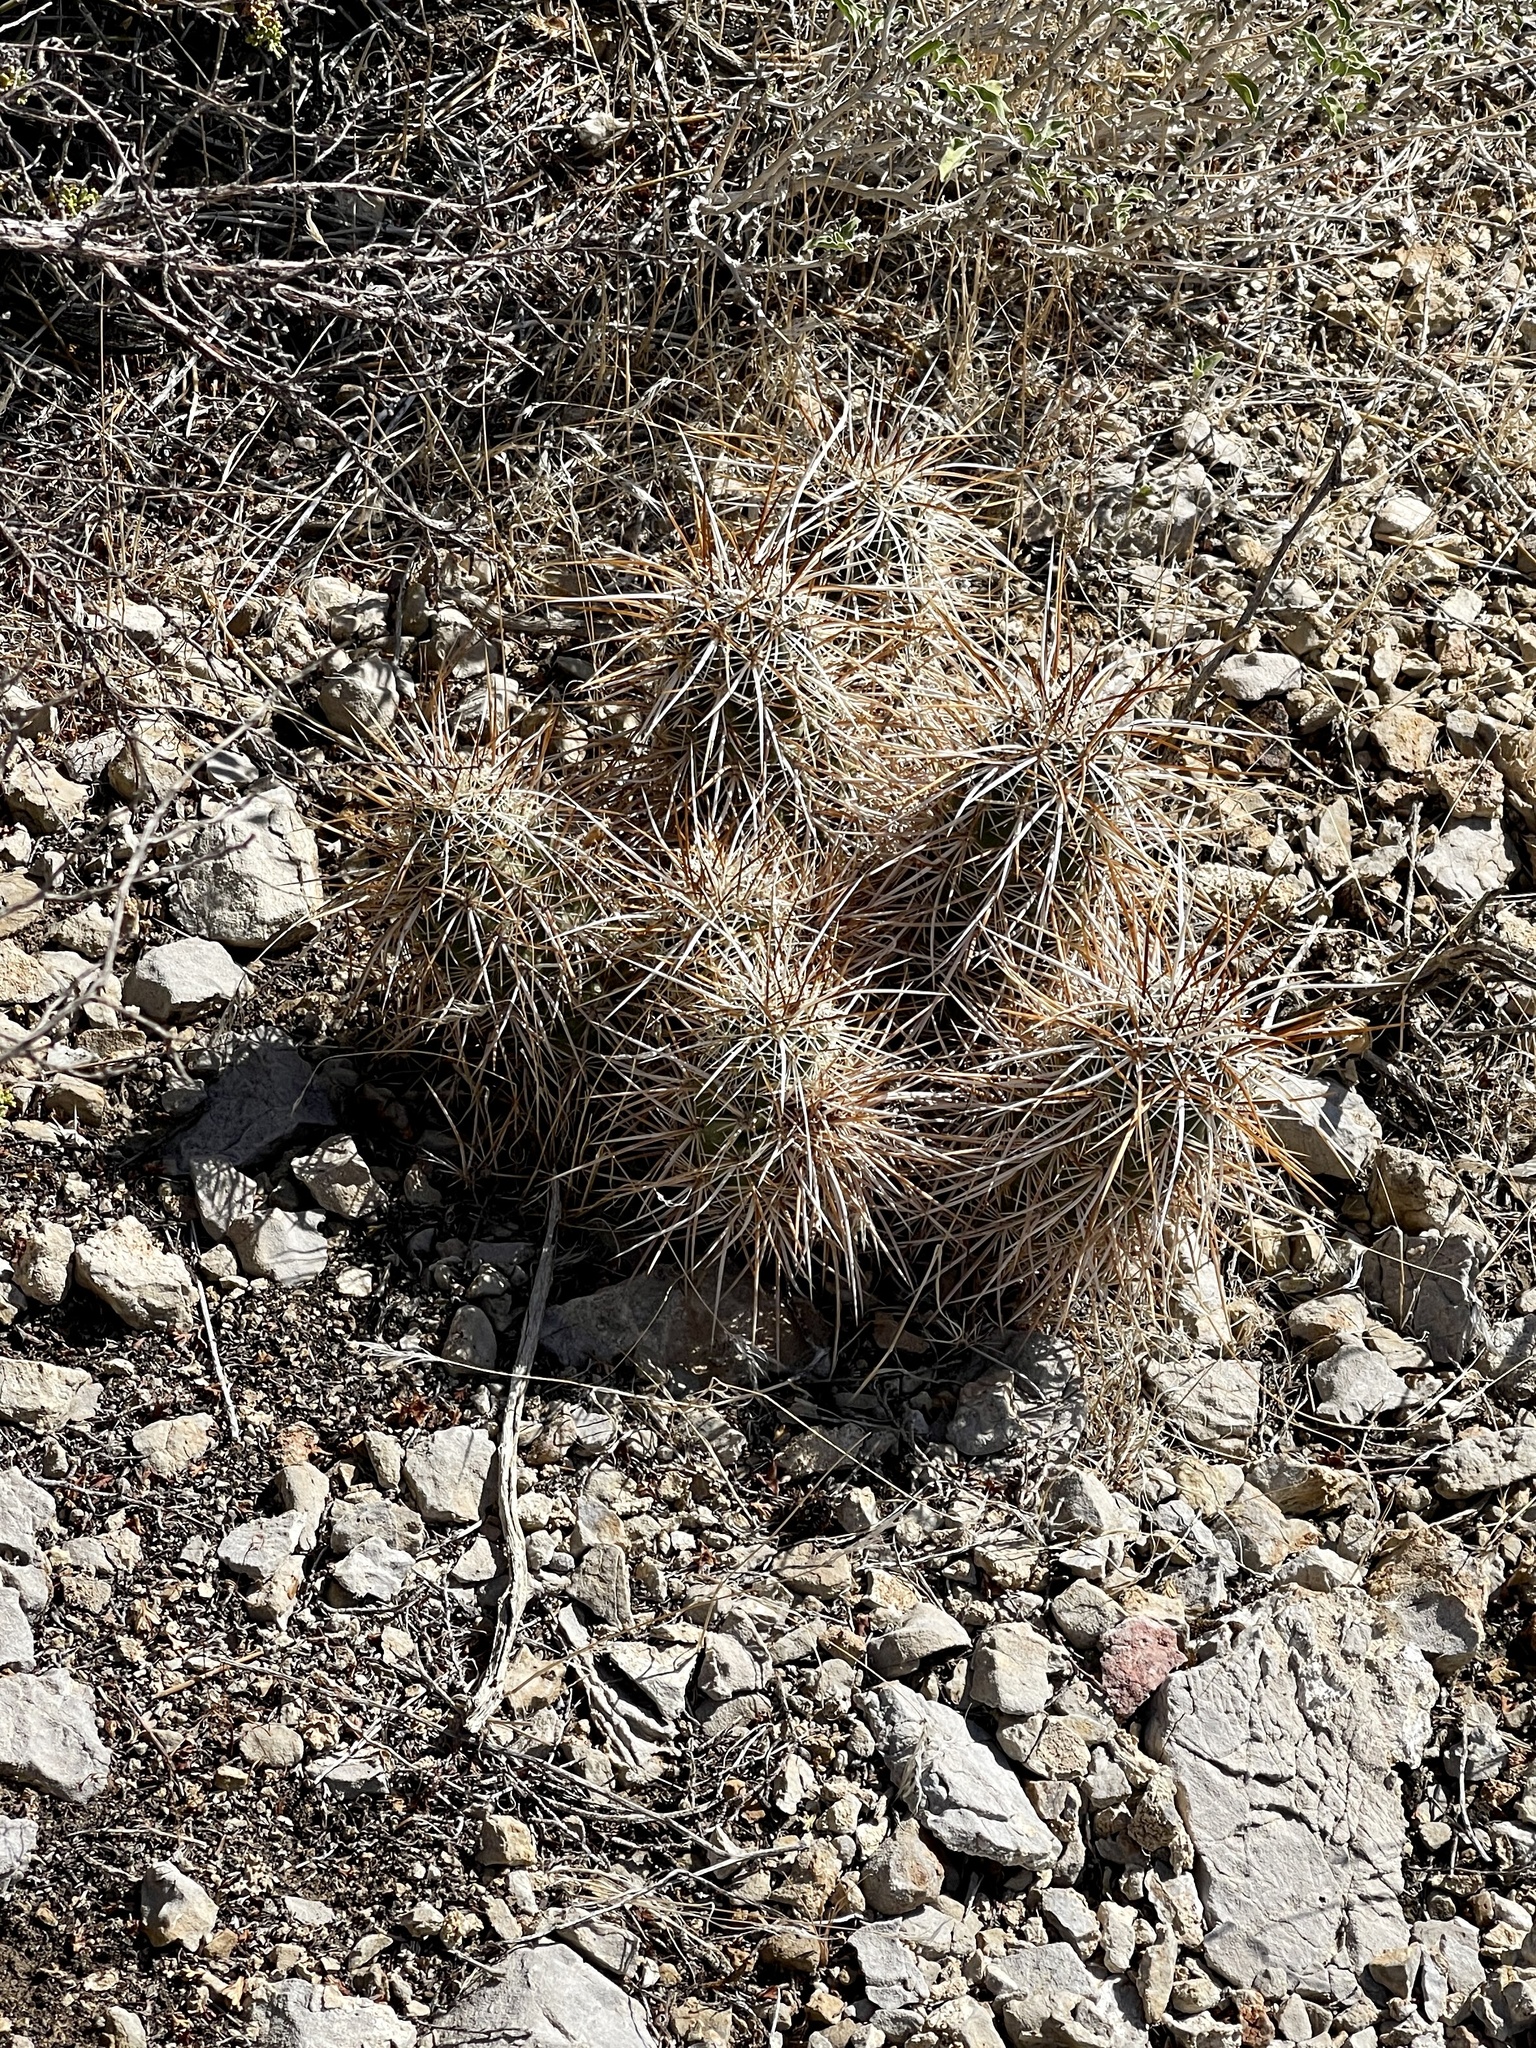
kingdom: Plantae
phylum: Tracheophyta
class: Magnoliopsida
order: Caryophyllales
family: Cactaceae
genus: Echinocereus
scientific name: Echinocereus engelmannii
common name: Engelmann's hedgehog cactus
